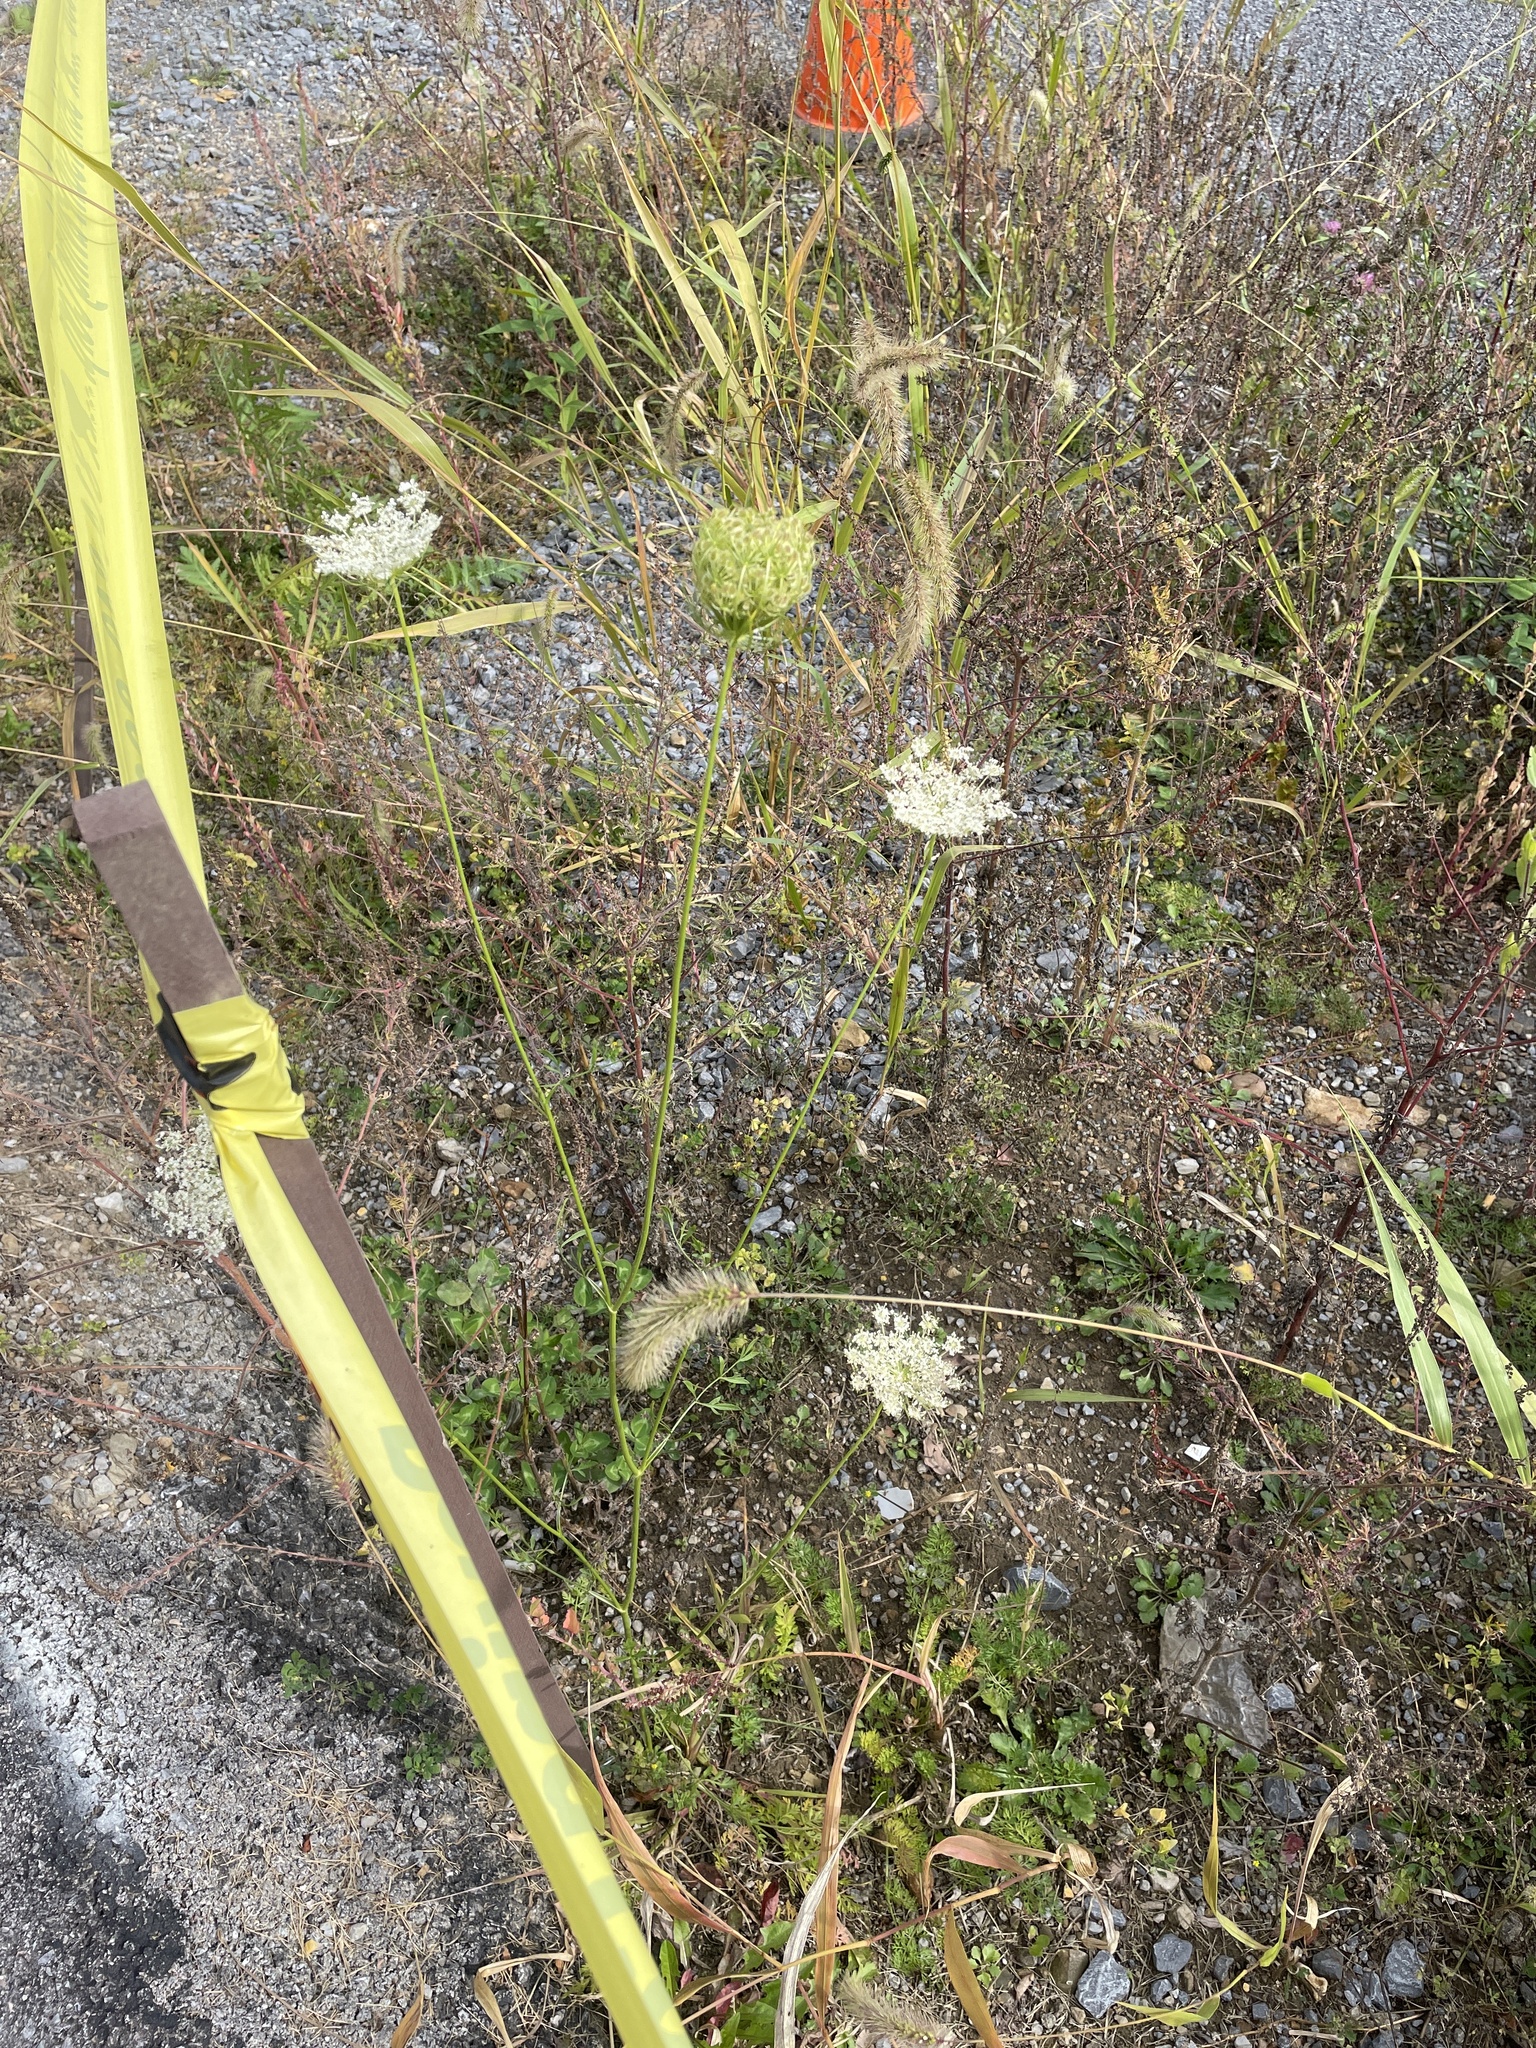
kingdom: Plantae
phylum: Tracheophyta
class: Magnoliopsida
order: Apiales
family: Apiaceae
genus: Daucus
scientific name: Daucus carota
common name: Wild carrot
